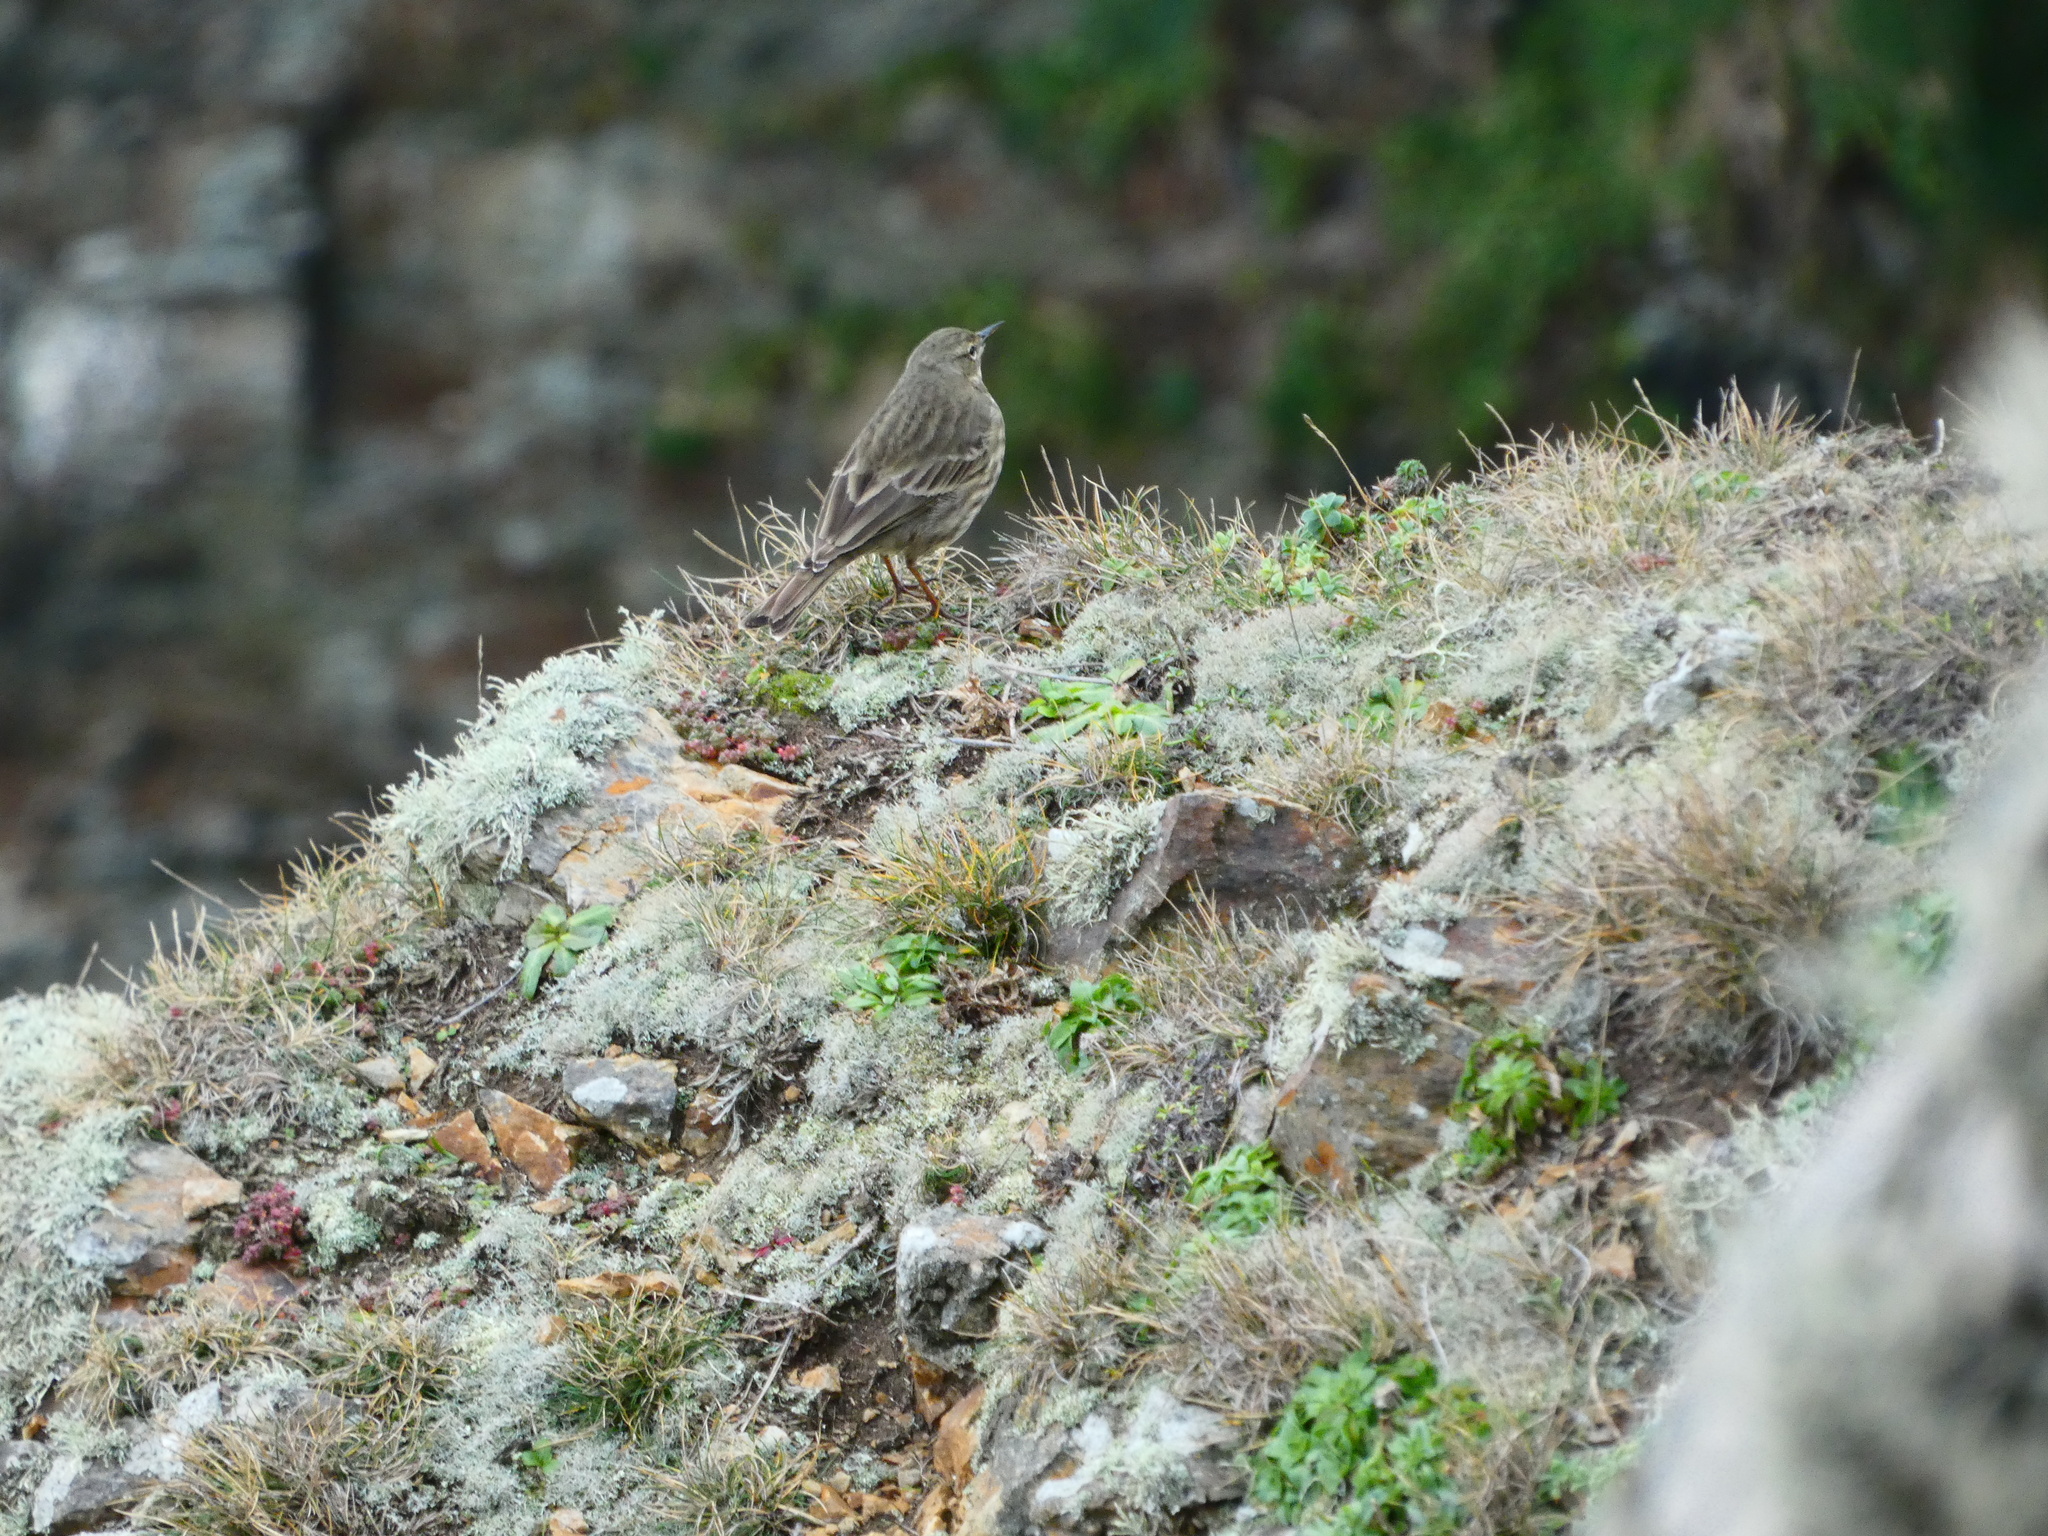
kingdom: Animalia
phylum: Chordata
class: Aves
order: Passeriformes
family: Motacillidae
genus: Anthus
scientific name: Anthus petrosus
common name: Eurasian rock pipit
